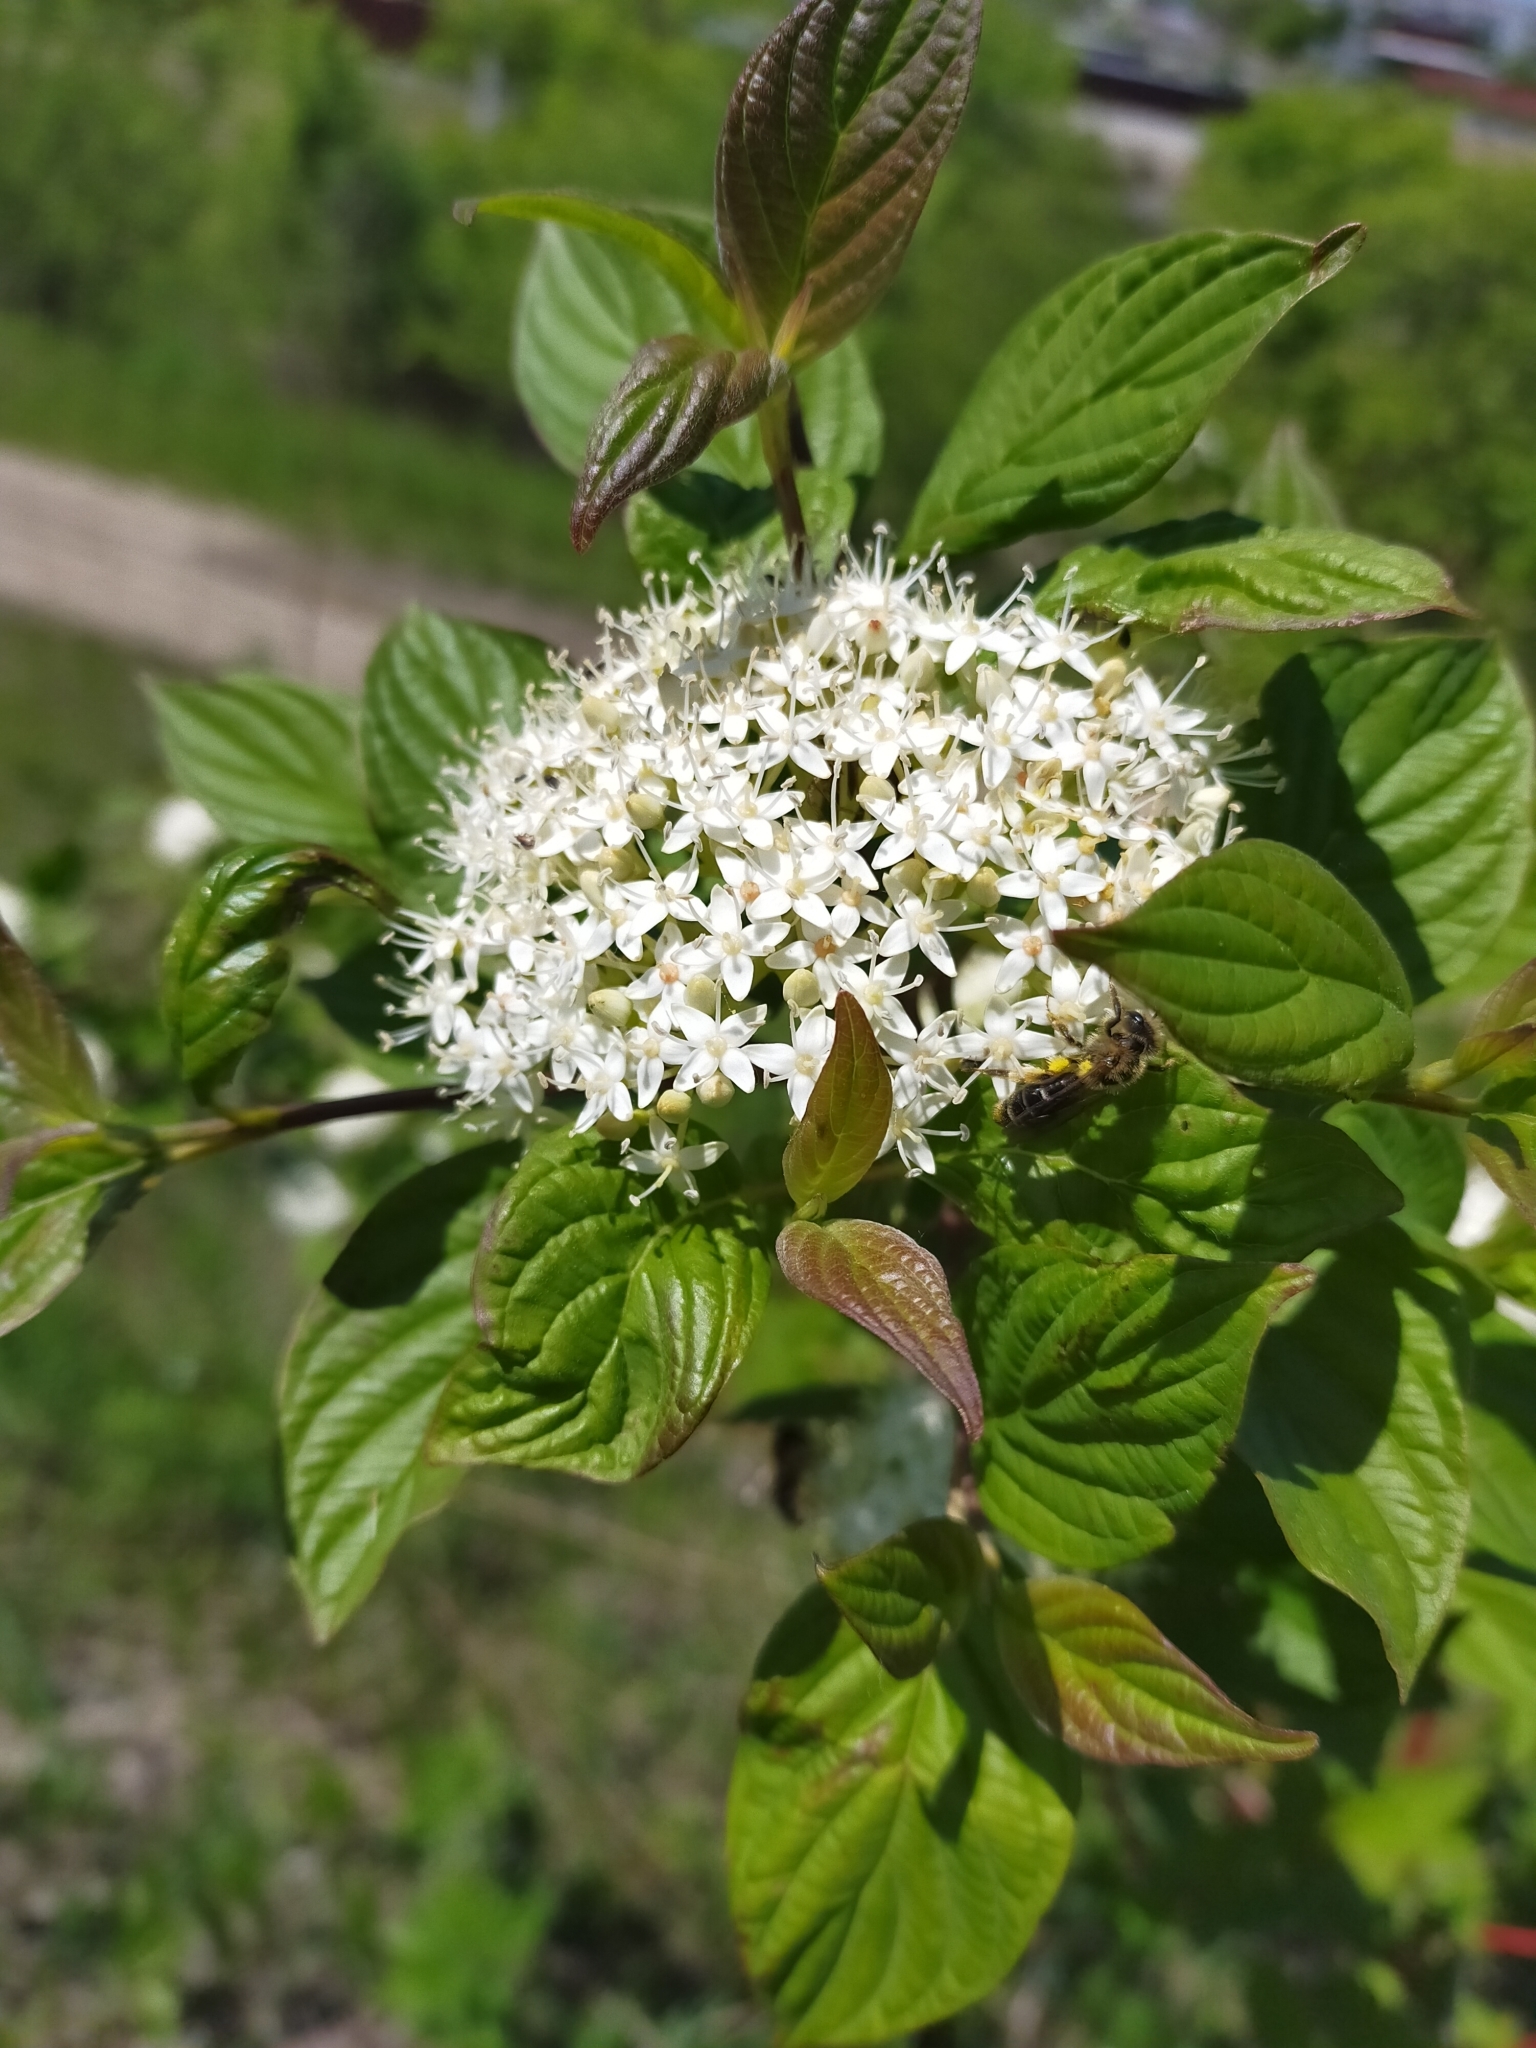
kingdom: Plantae
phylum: Tracheophyta
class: Magnoliopsida
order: Cornales
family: Cornaceae
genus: Cornus
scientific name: Cornus alba
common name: White dogwood
